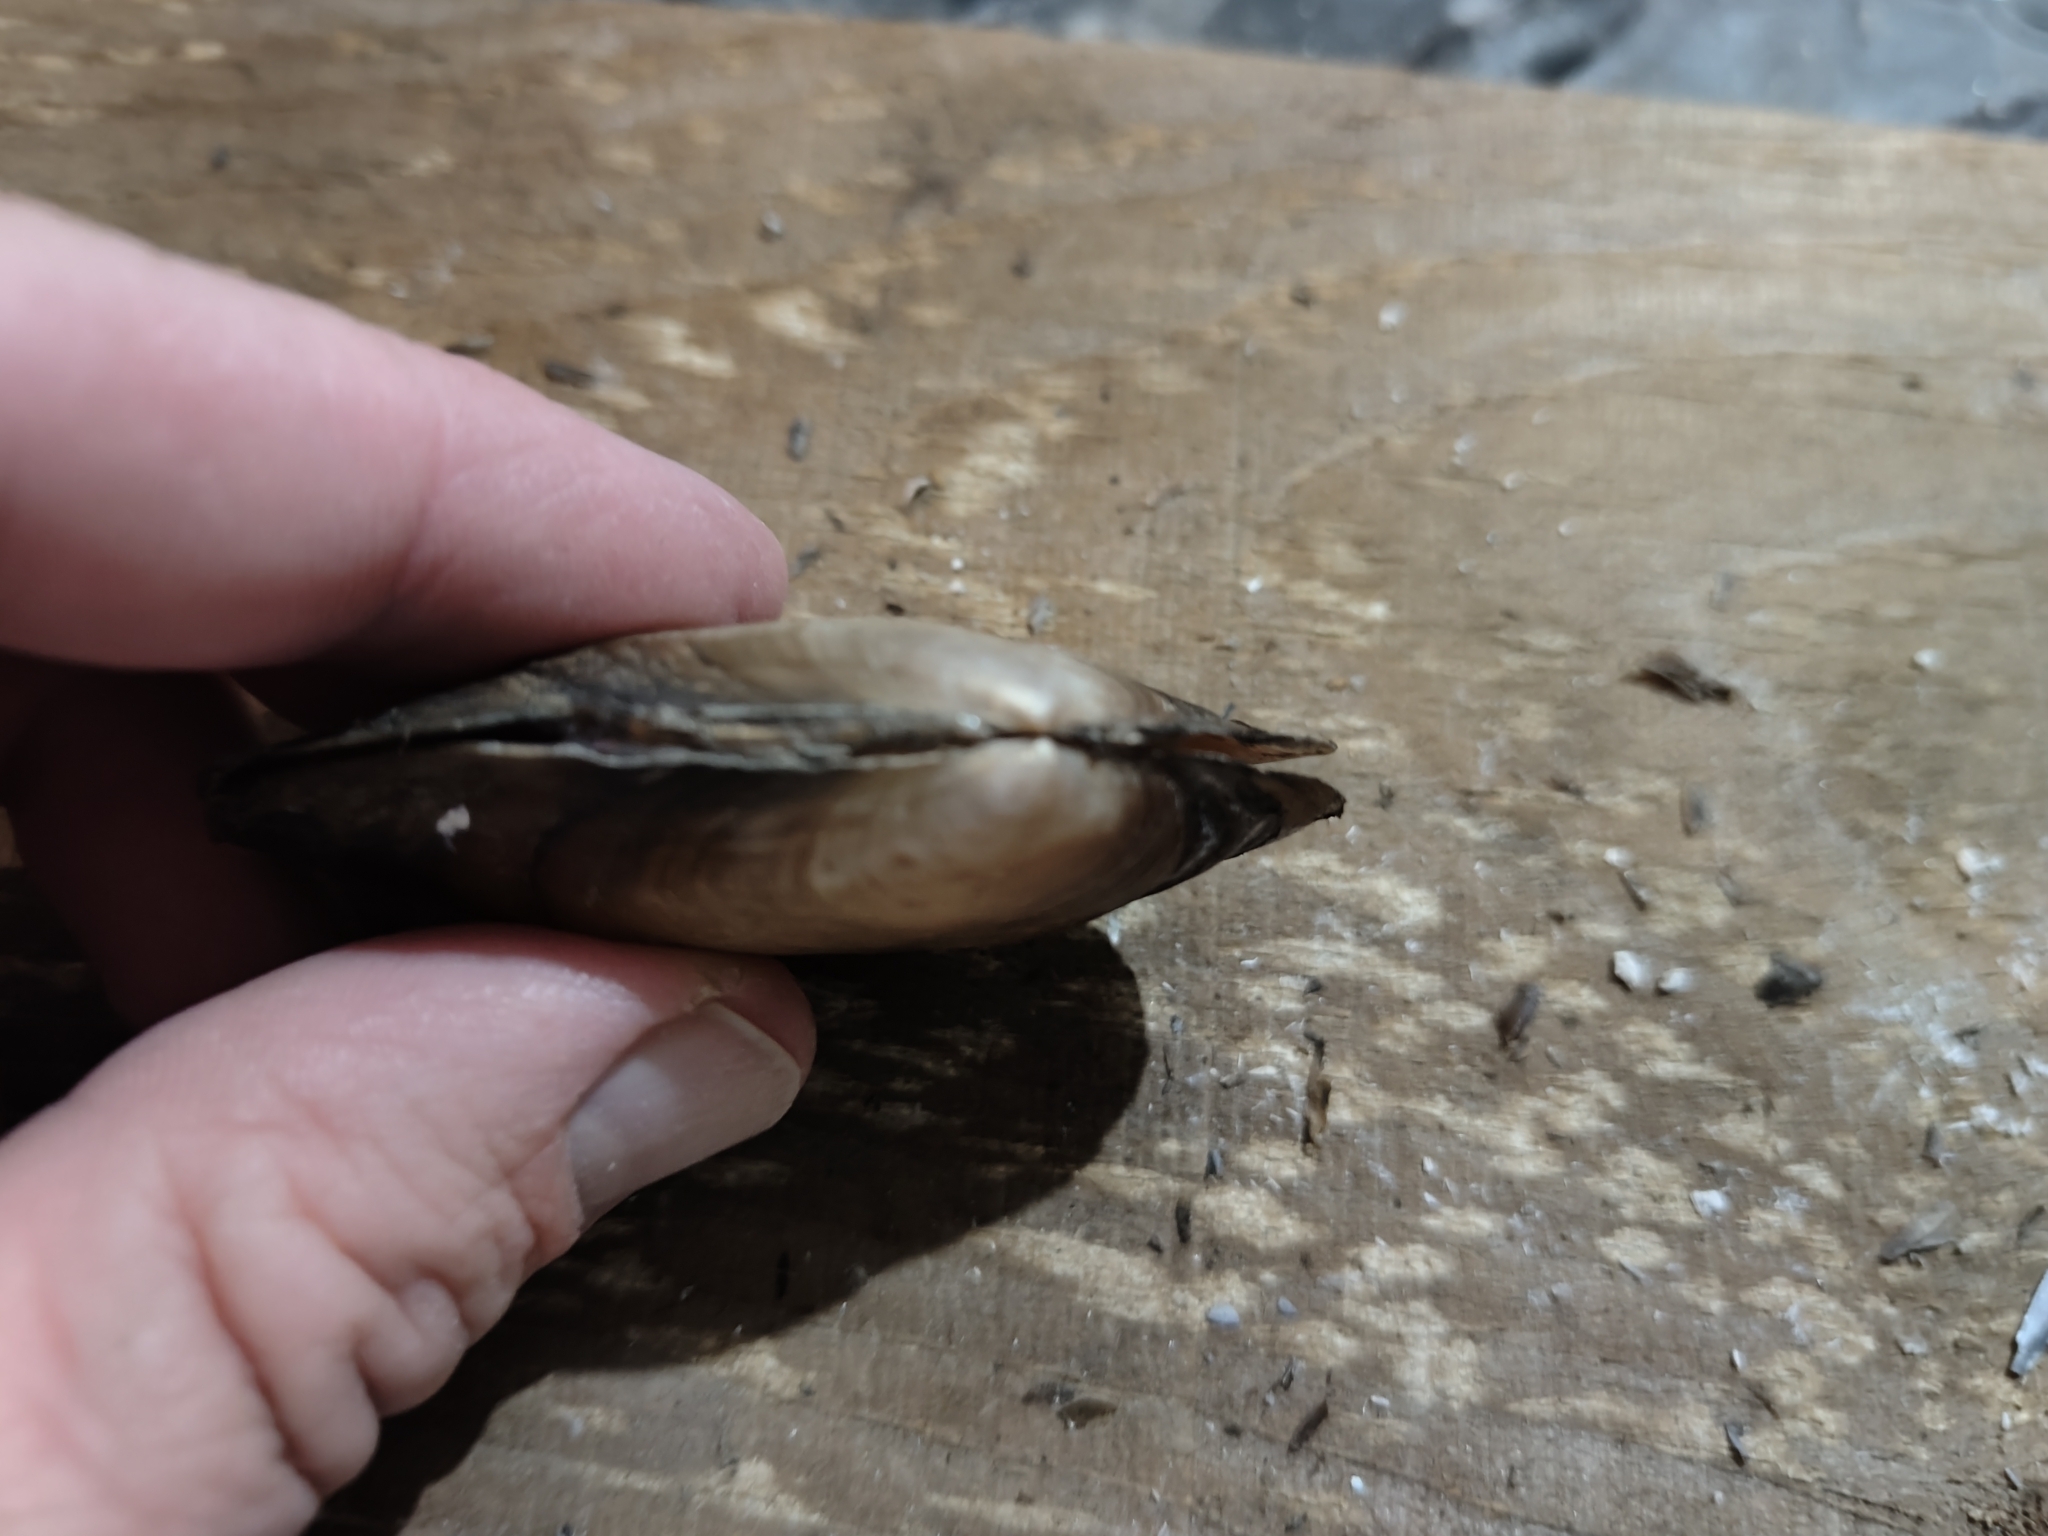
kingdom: Animalia
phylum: Mollusca
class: Bivalvia
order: Unionida
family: Unionidae
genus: Potamilus
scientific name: Potamilus ohiensis
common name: Pink papershell
